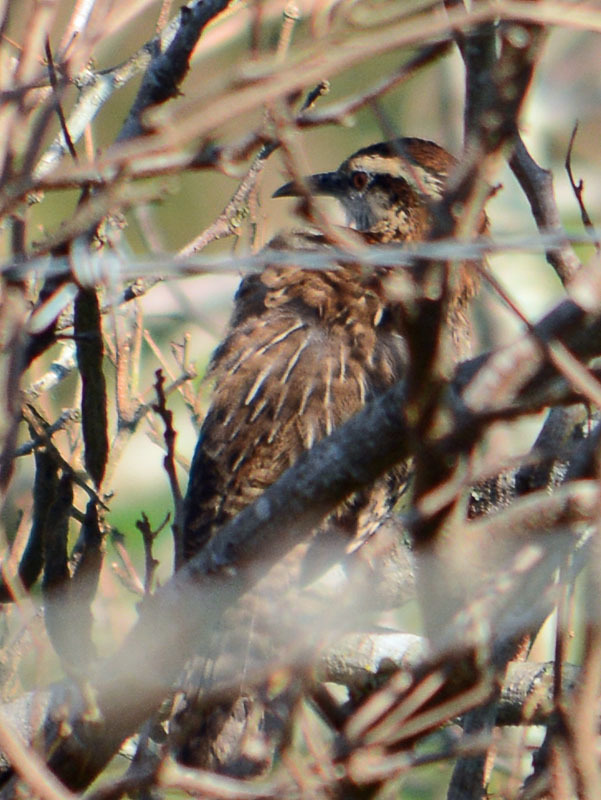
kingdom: Animalia
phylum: Chordata
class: Aves
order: Passeriformes
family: Troglodytidae
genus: Campylorhynchus
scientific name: Campylorhynchus rufinucha
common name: Rufous-naped wren
